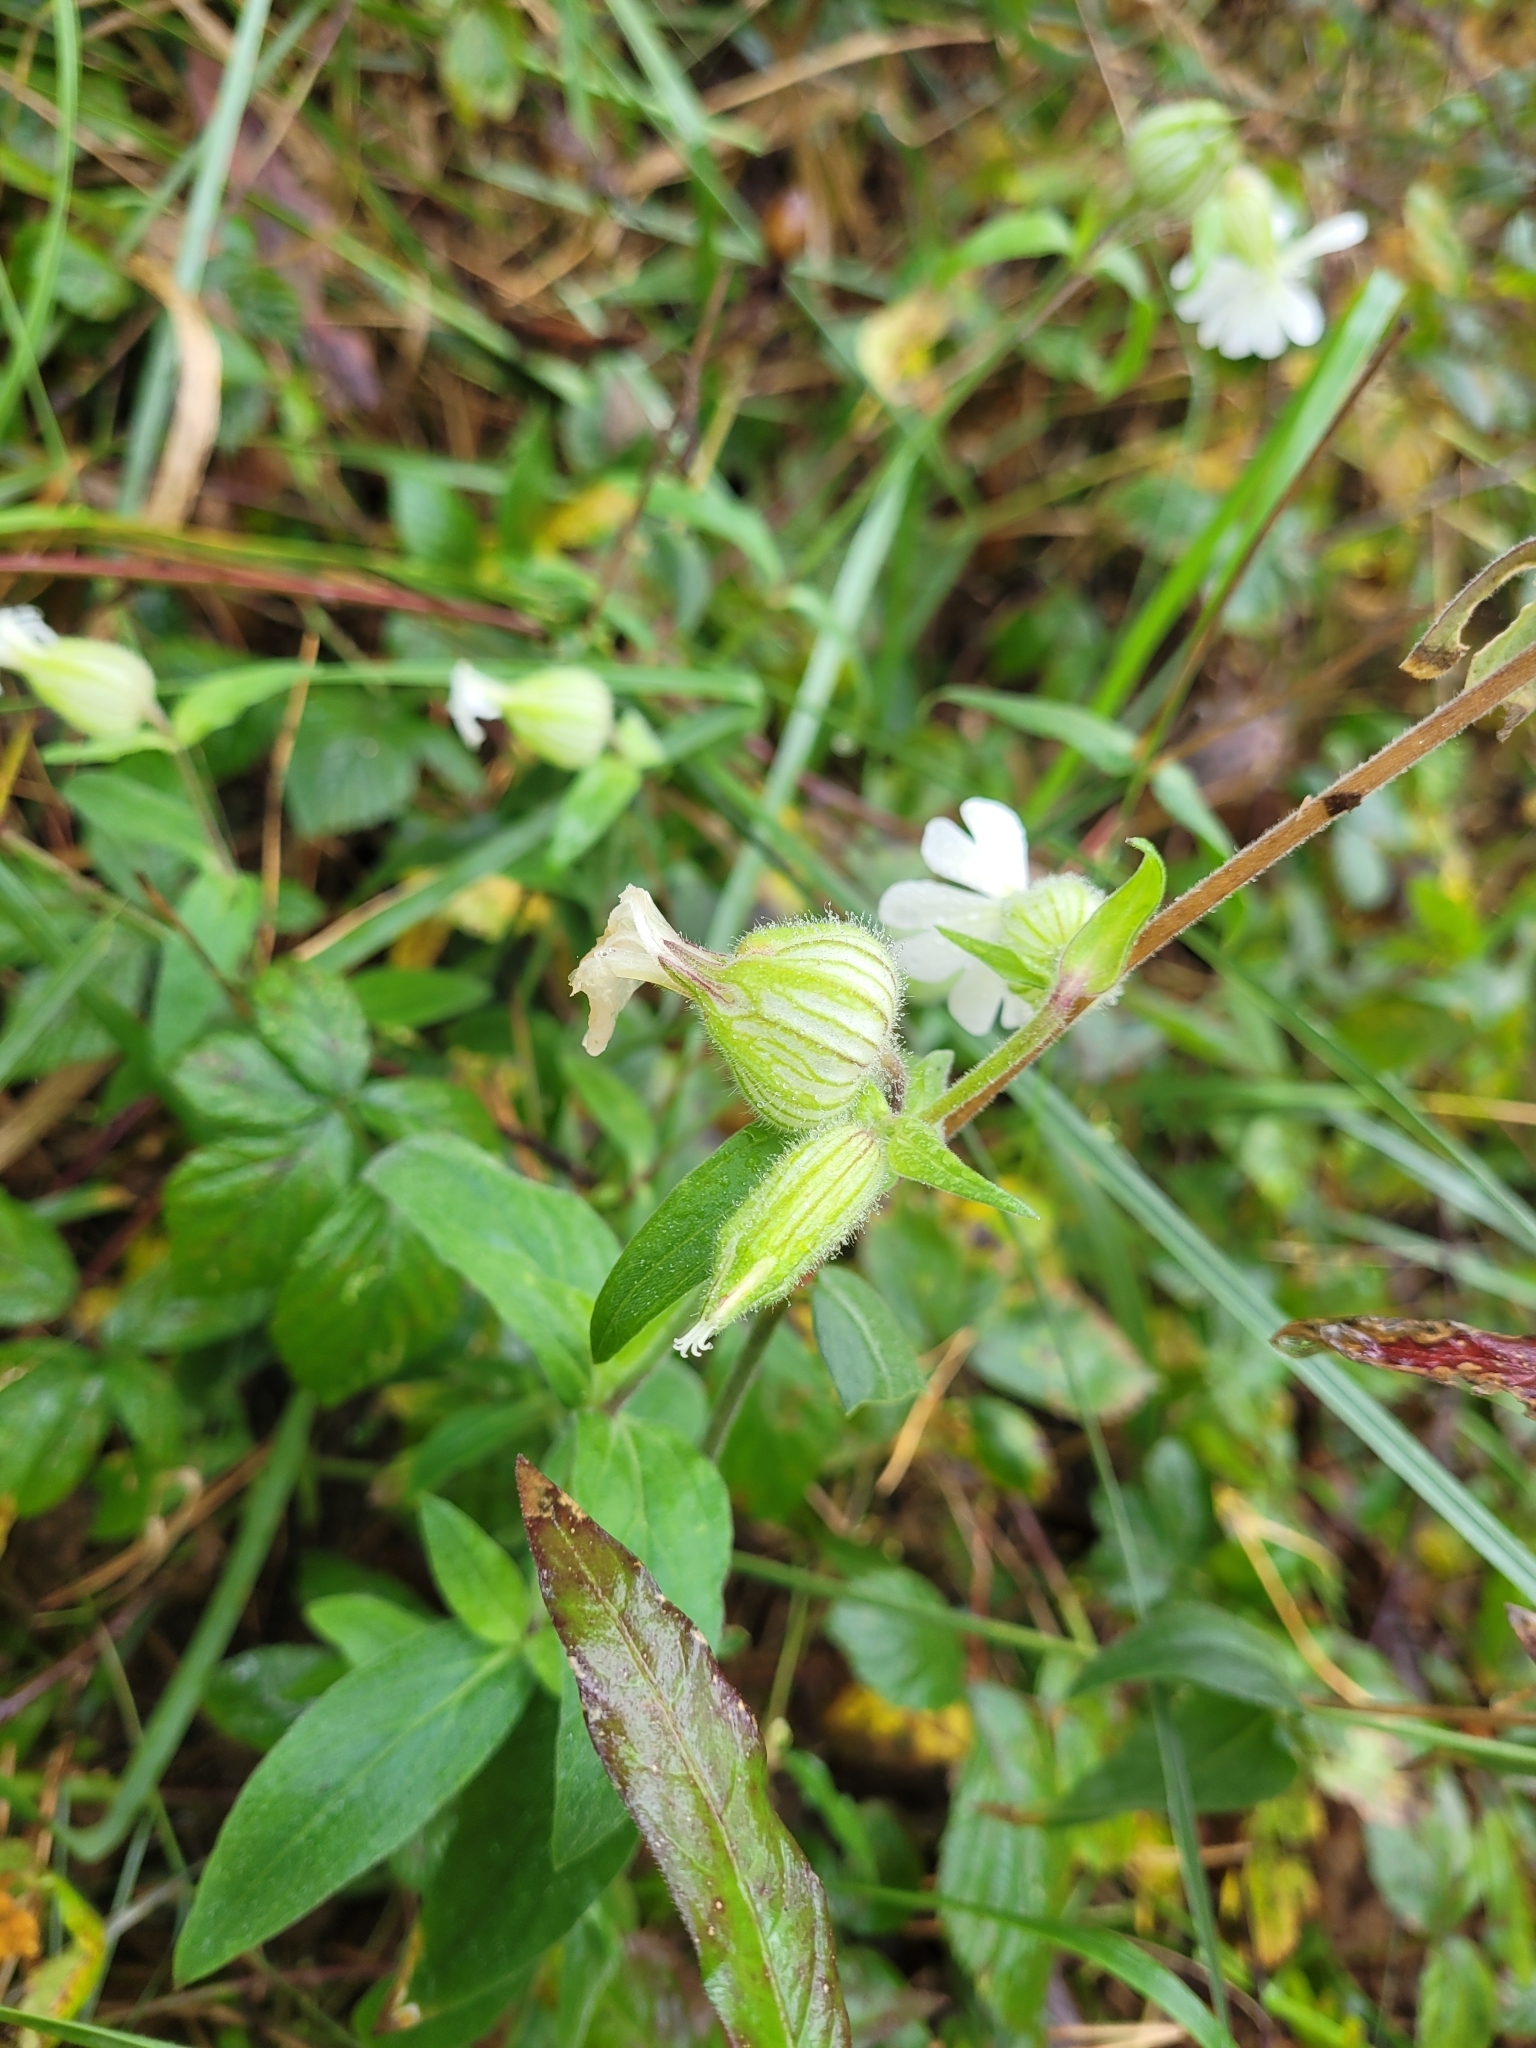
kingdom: Plantae
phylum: Tracheophyta
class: Magnoliopsida
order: Caryophyllales
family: Caryophyllaceae
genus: Silene
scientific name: Silene latifolia
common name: White campion
